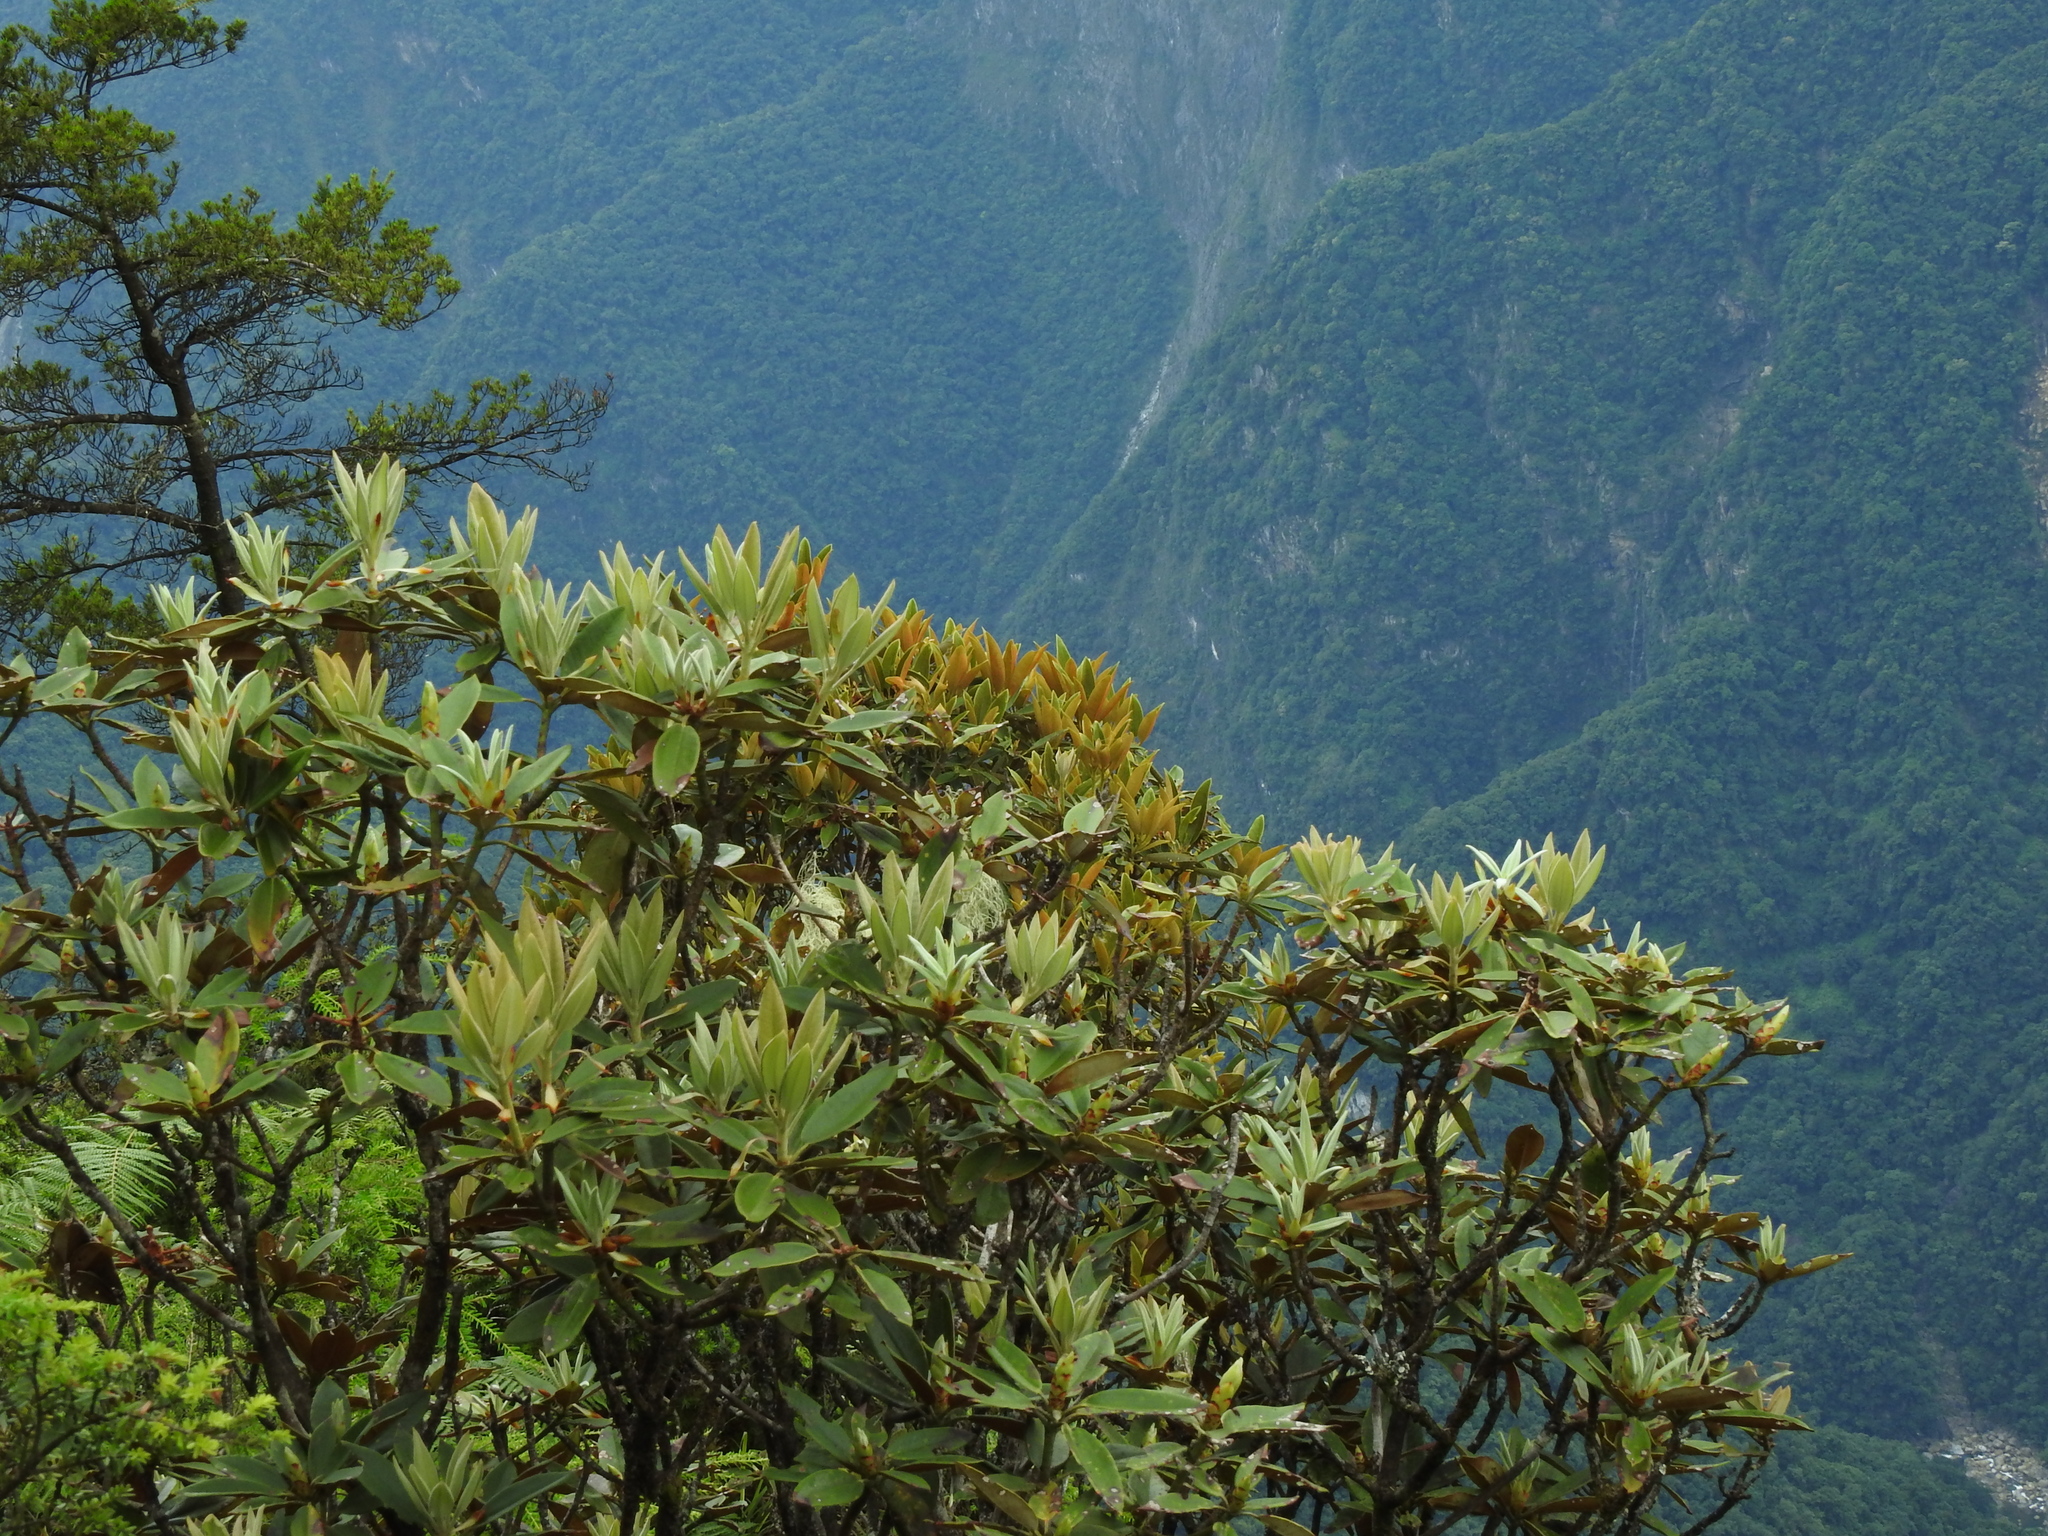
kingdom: Plantae
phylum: Tracheophyta
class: Magnoliopsida
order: Ericales
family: Ericaceae
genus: Rhododendron
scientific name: Rhododendron pseudochrysanthum
